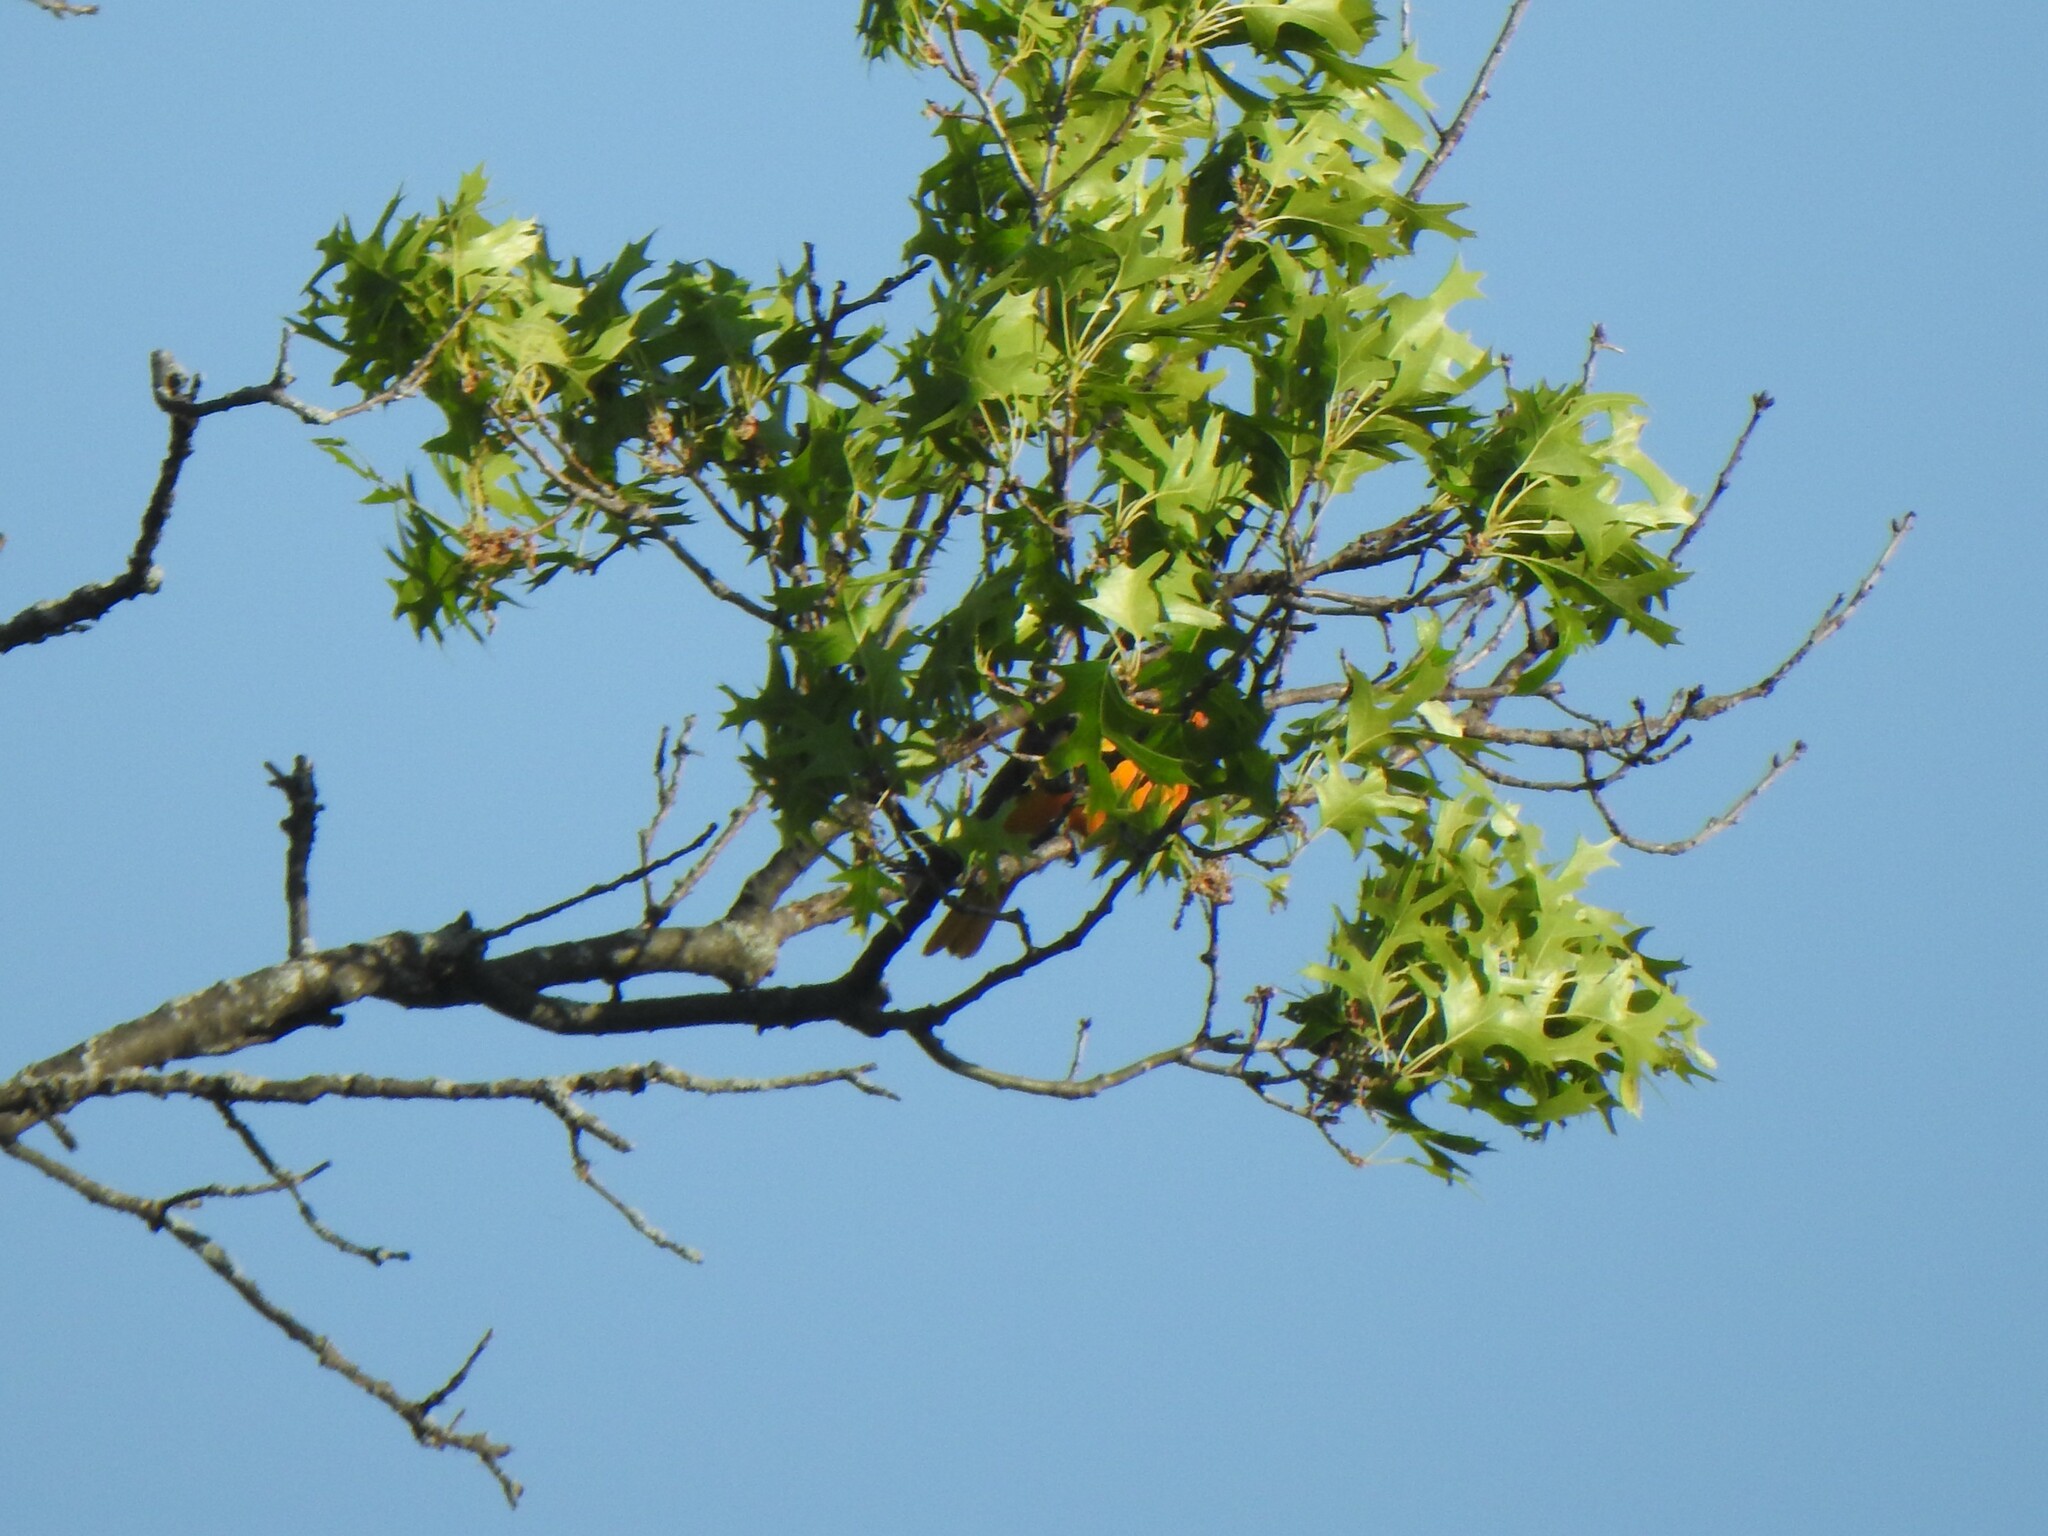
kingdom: Animalia
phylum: Chordata
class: Aves
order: Passeriformes
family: Icteridae
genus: Icterus
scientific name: Icterus galbula
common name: Baltimore oriole
